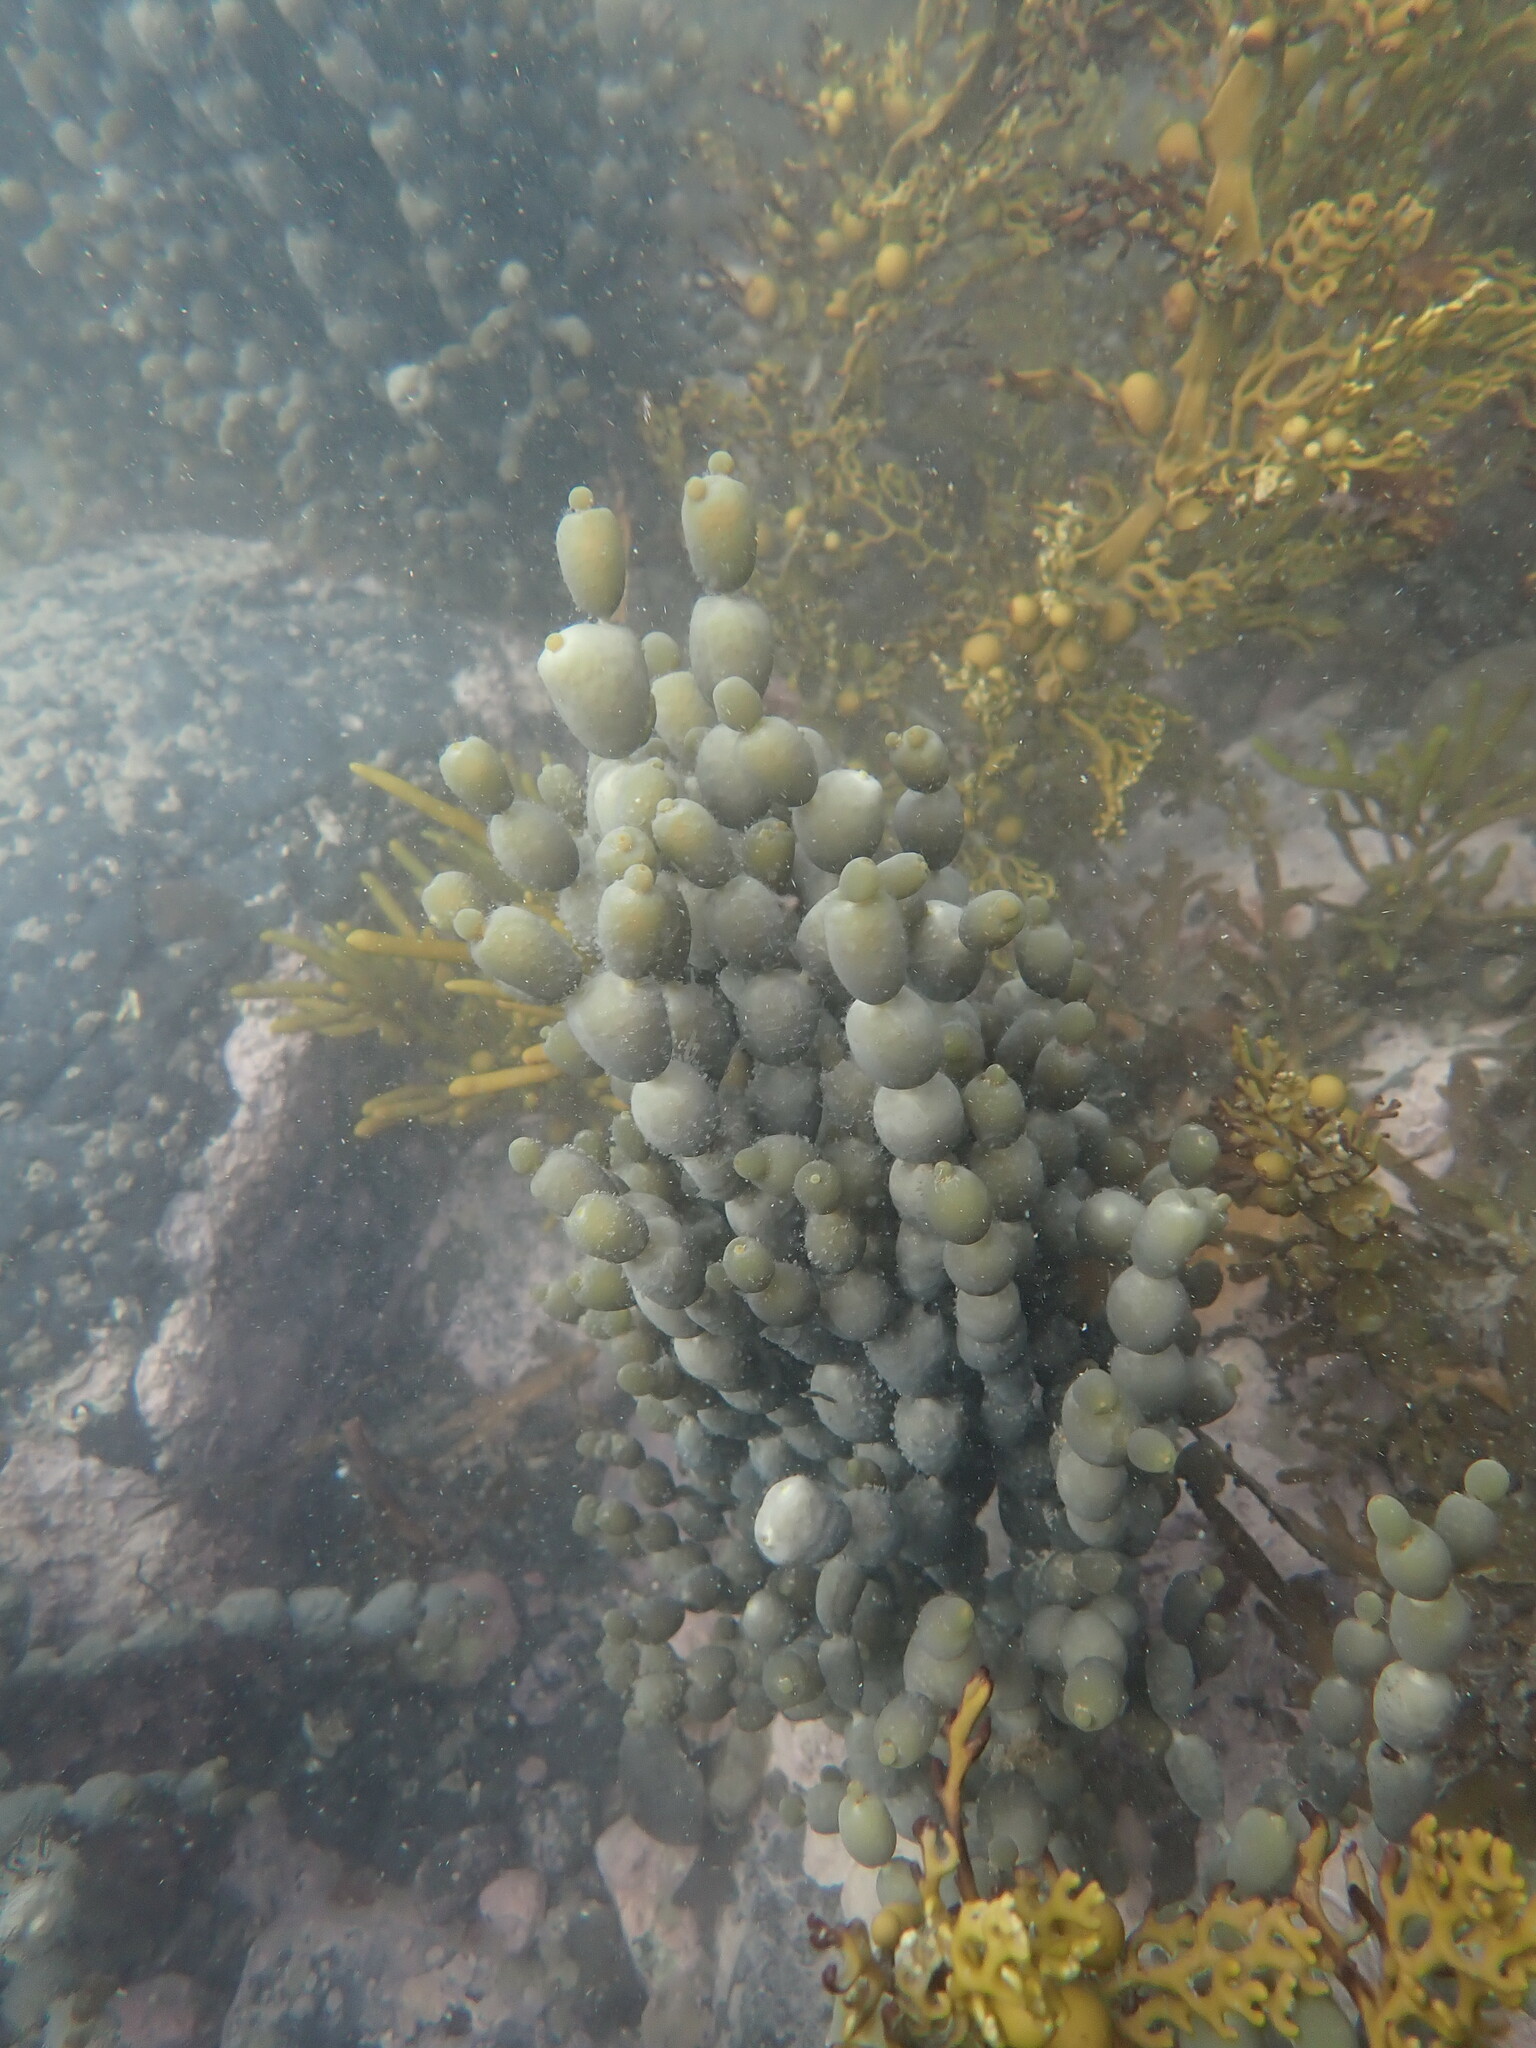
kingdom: Chromista
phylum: Ochrophyta
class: Phaeophyceae
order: Fucales
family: Hormosiraceae
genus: Hormosira
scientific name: Hormosira banksii
